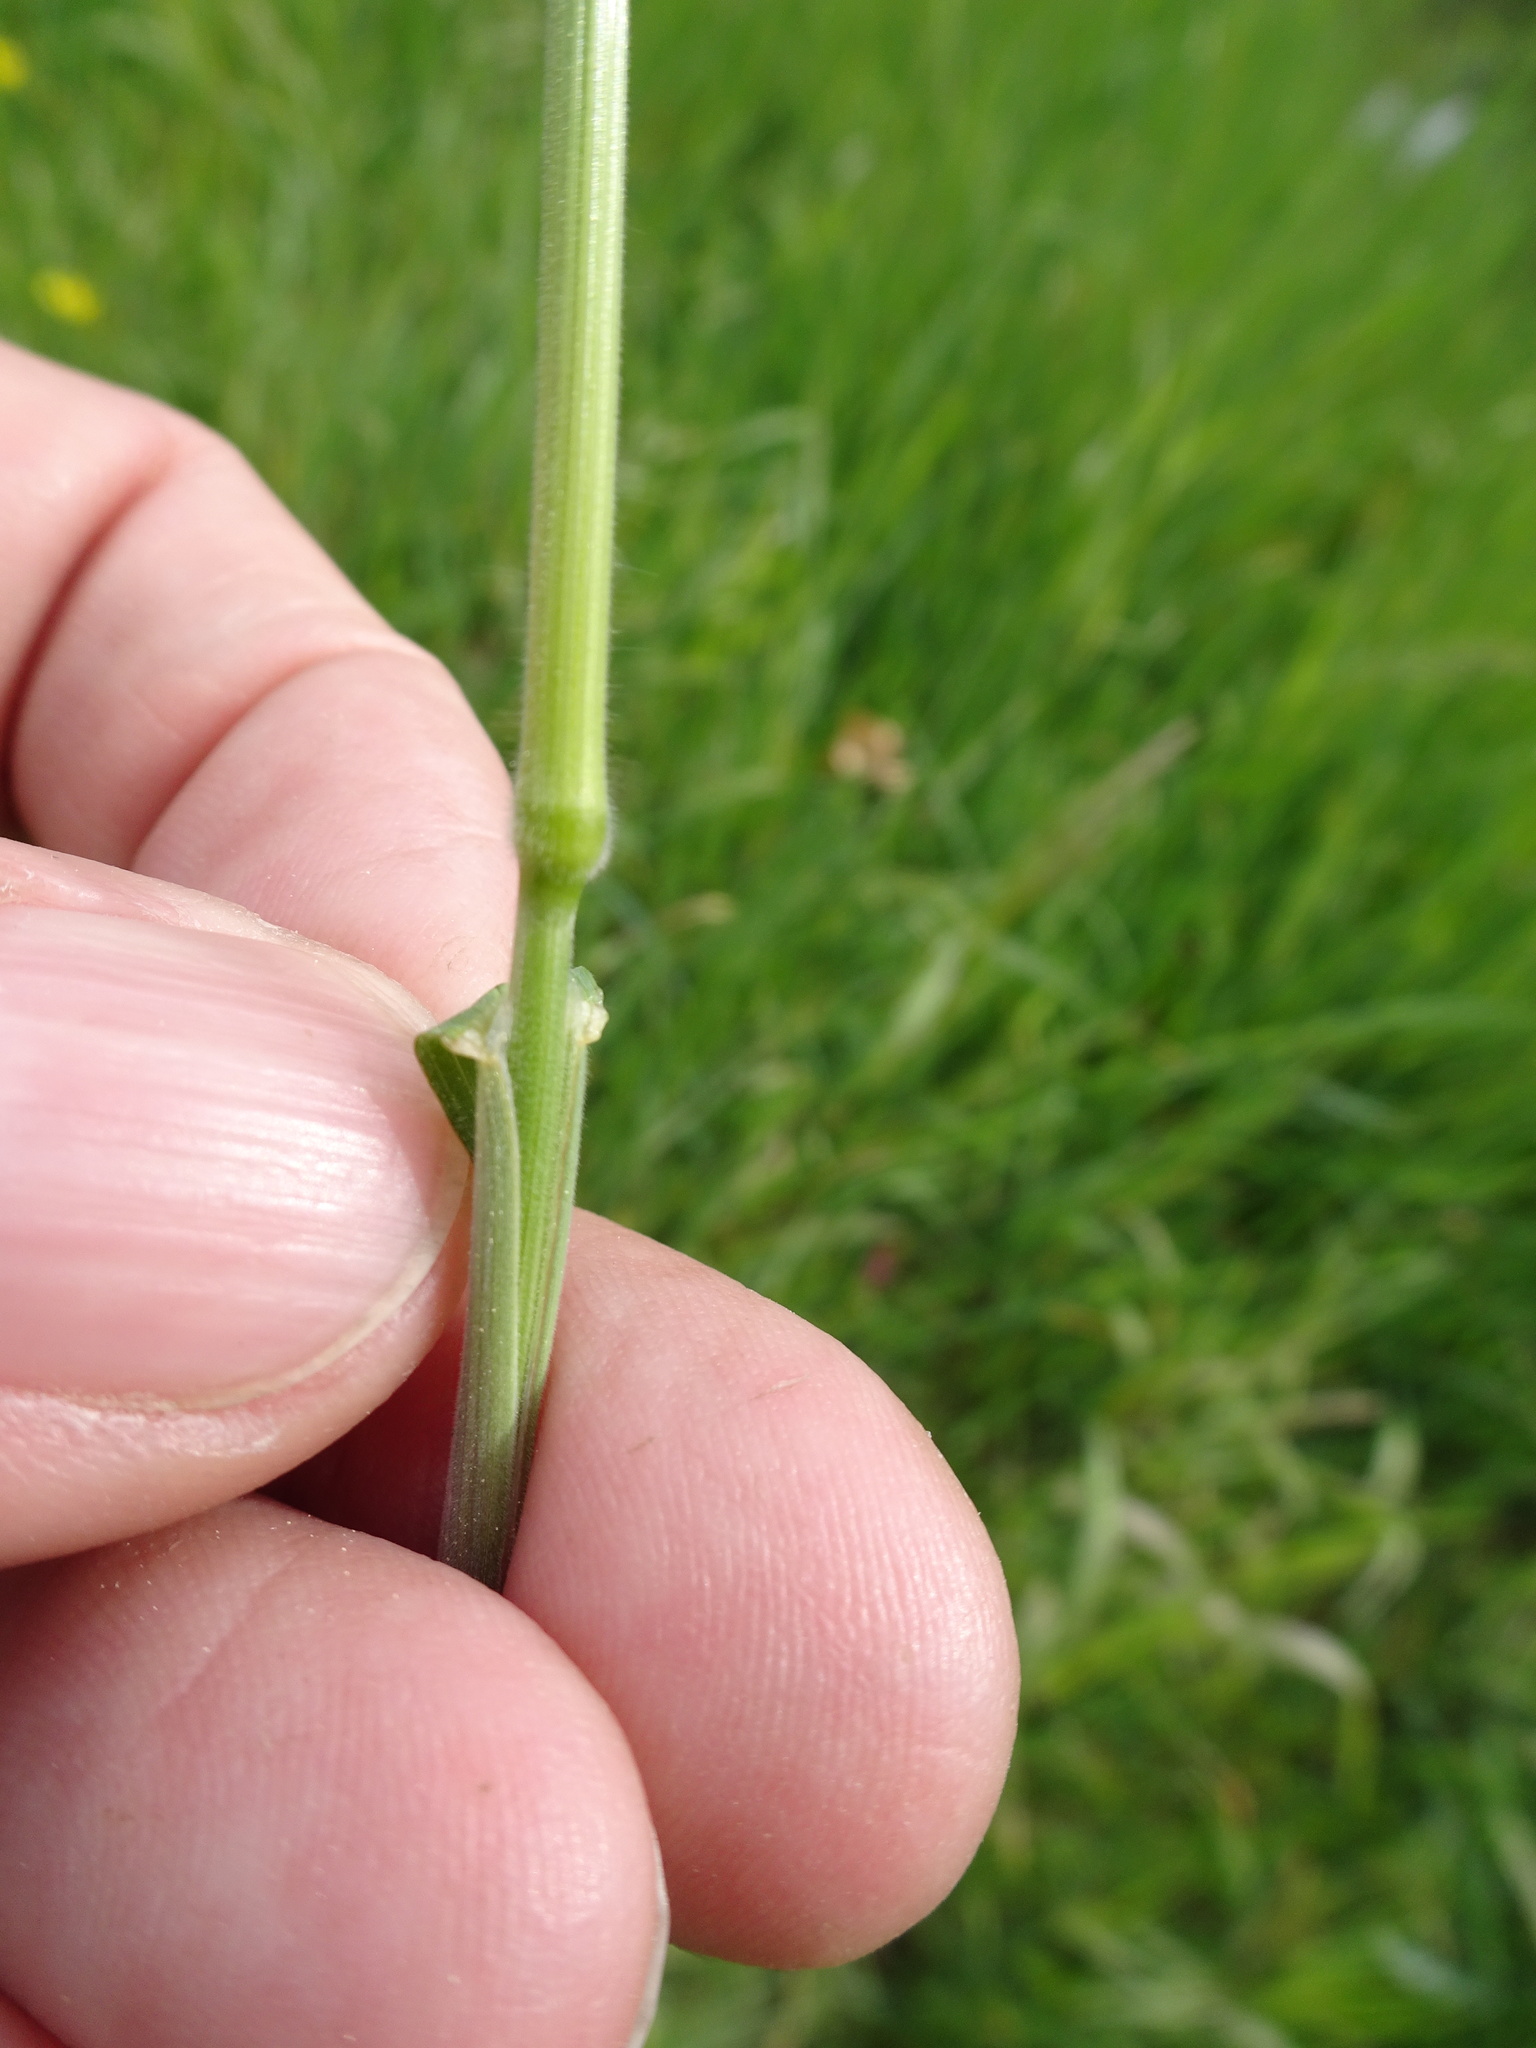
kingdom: Plantae
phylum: Tracheophyta
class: Liliopsida
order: Poales
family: Poaceae
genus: Bromus
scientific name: Bromus hordeaceus
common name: Soft brome
